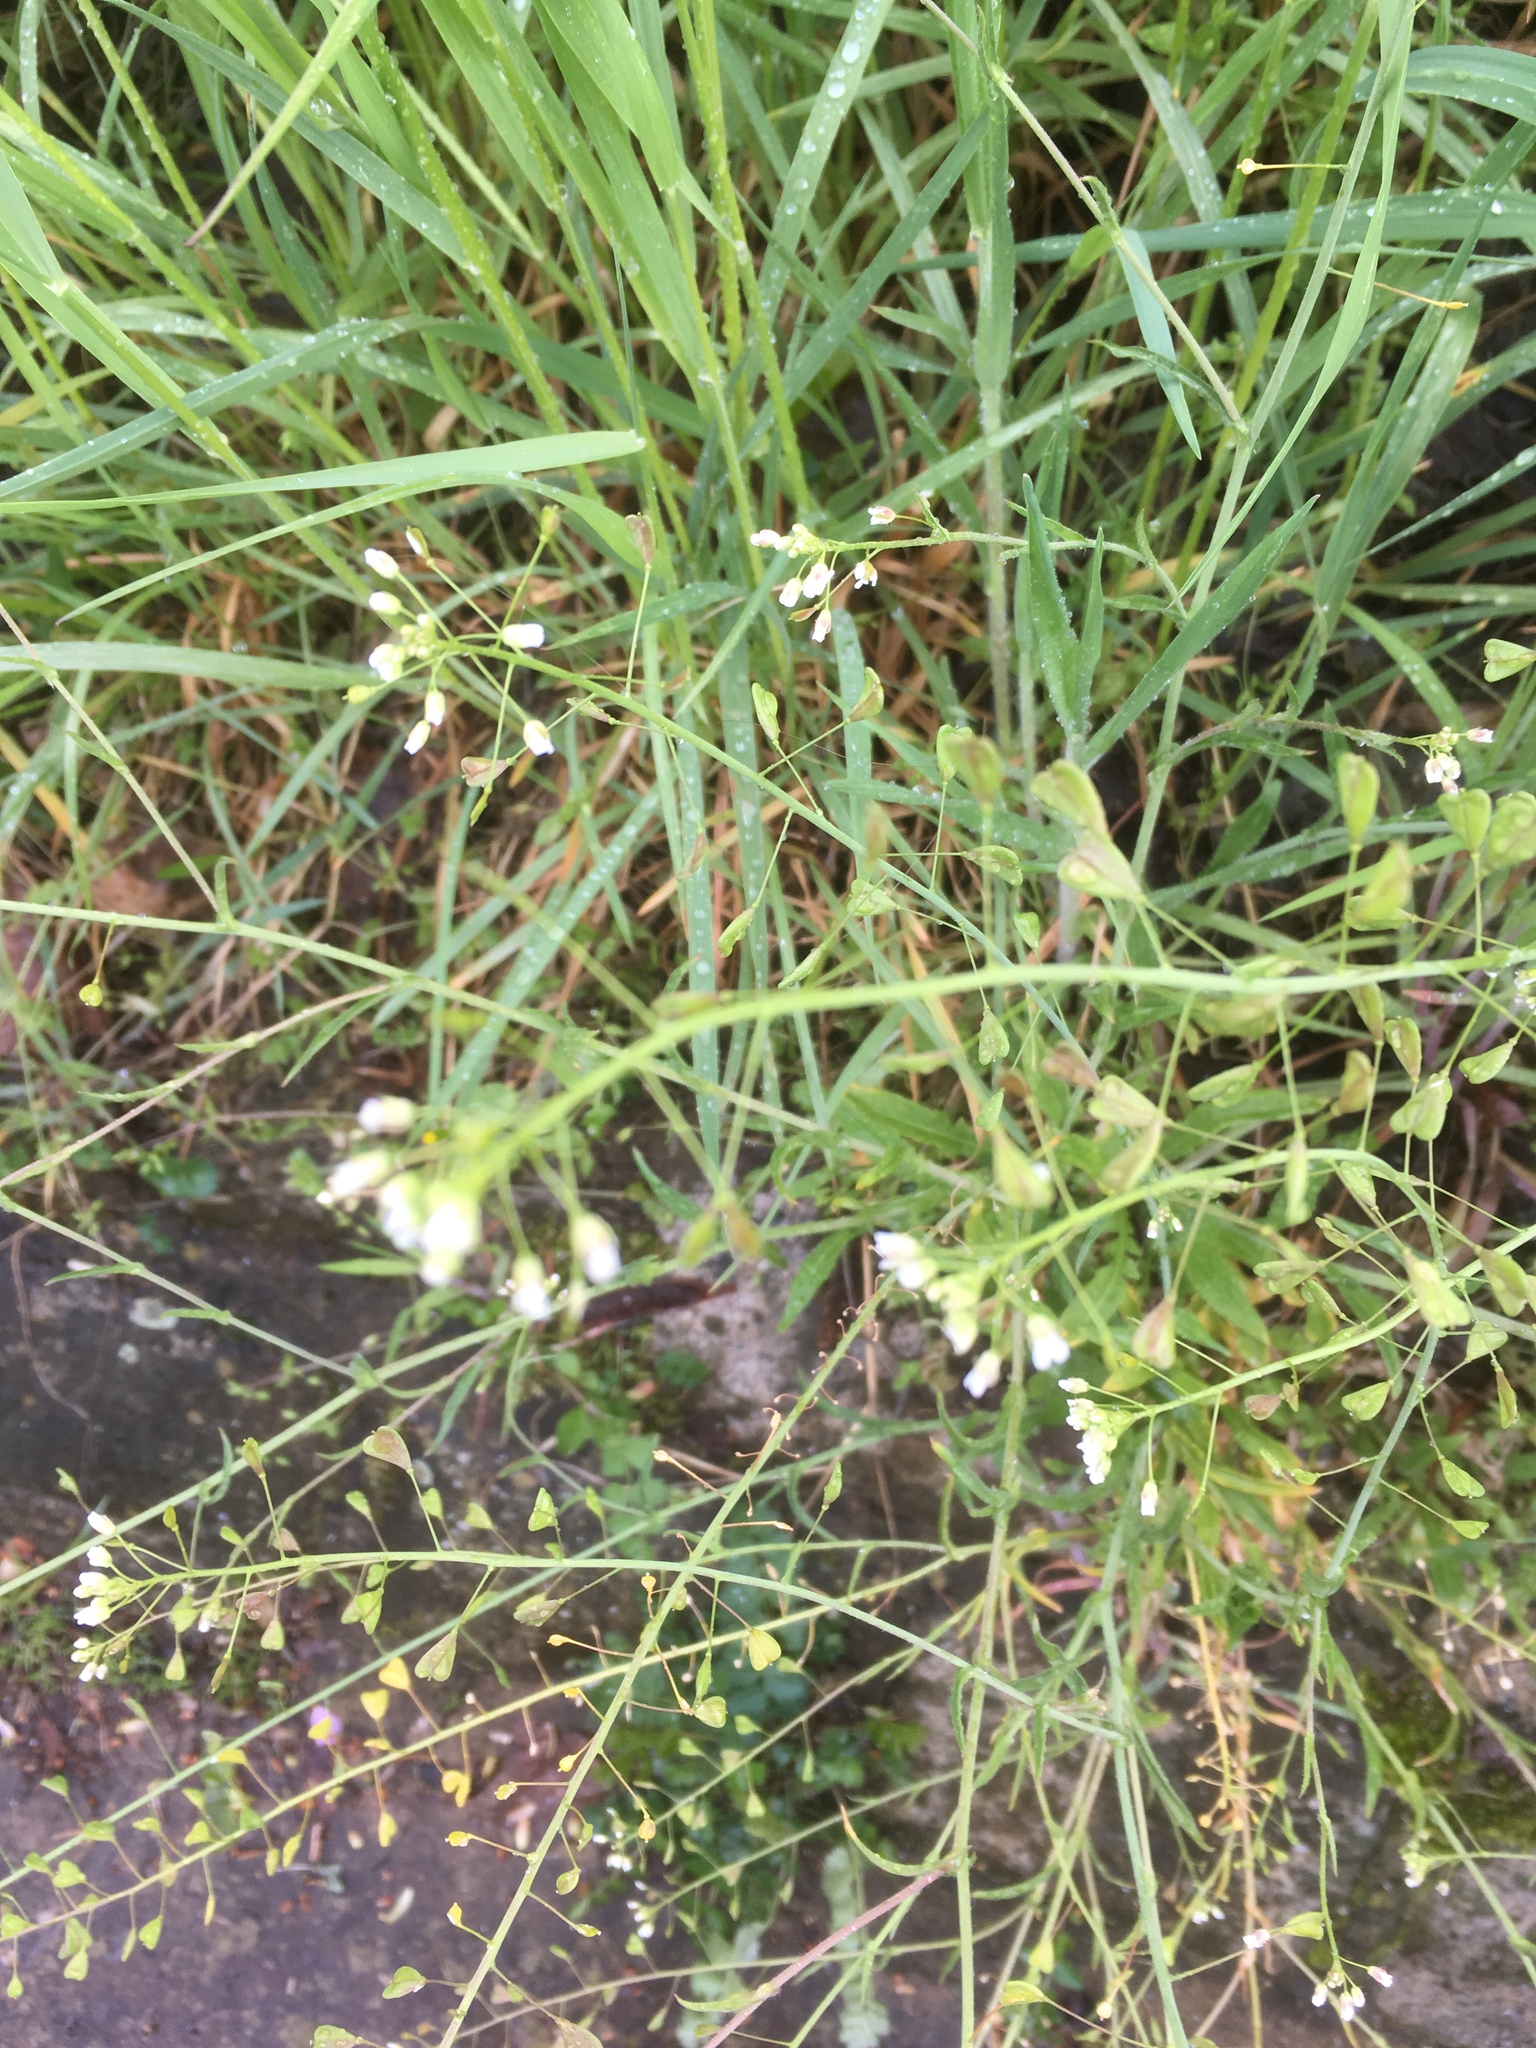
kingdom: Plantae
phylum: Tracheophyta
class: Magnoliopsida
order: Brassicales
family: Brassicaceae
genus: Capsella
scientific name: Capsella bursa-pastoris
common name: Shepherd's purse
